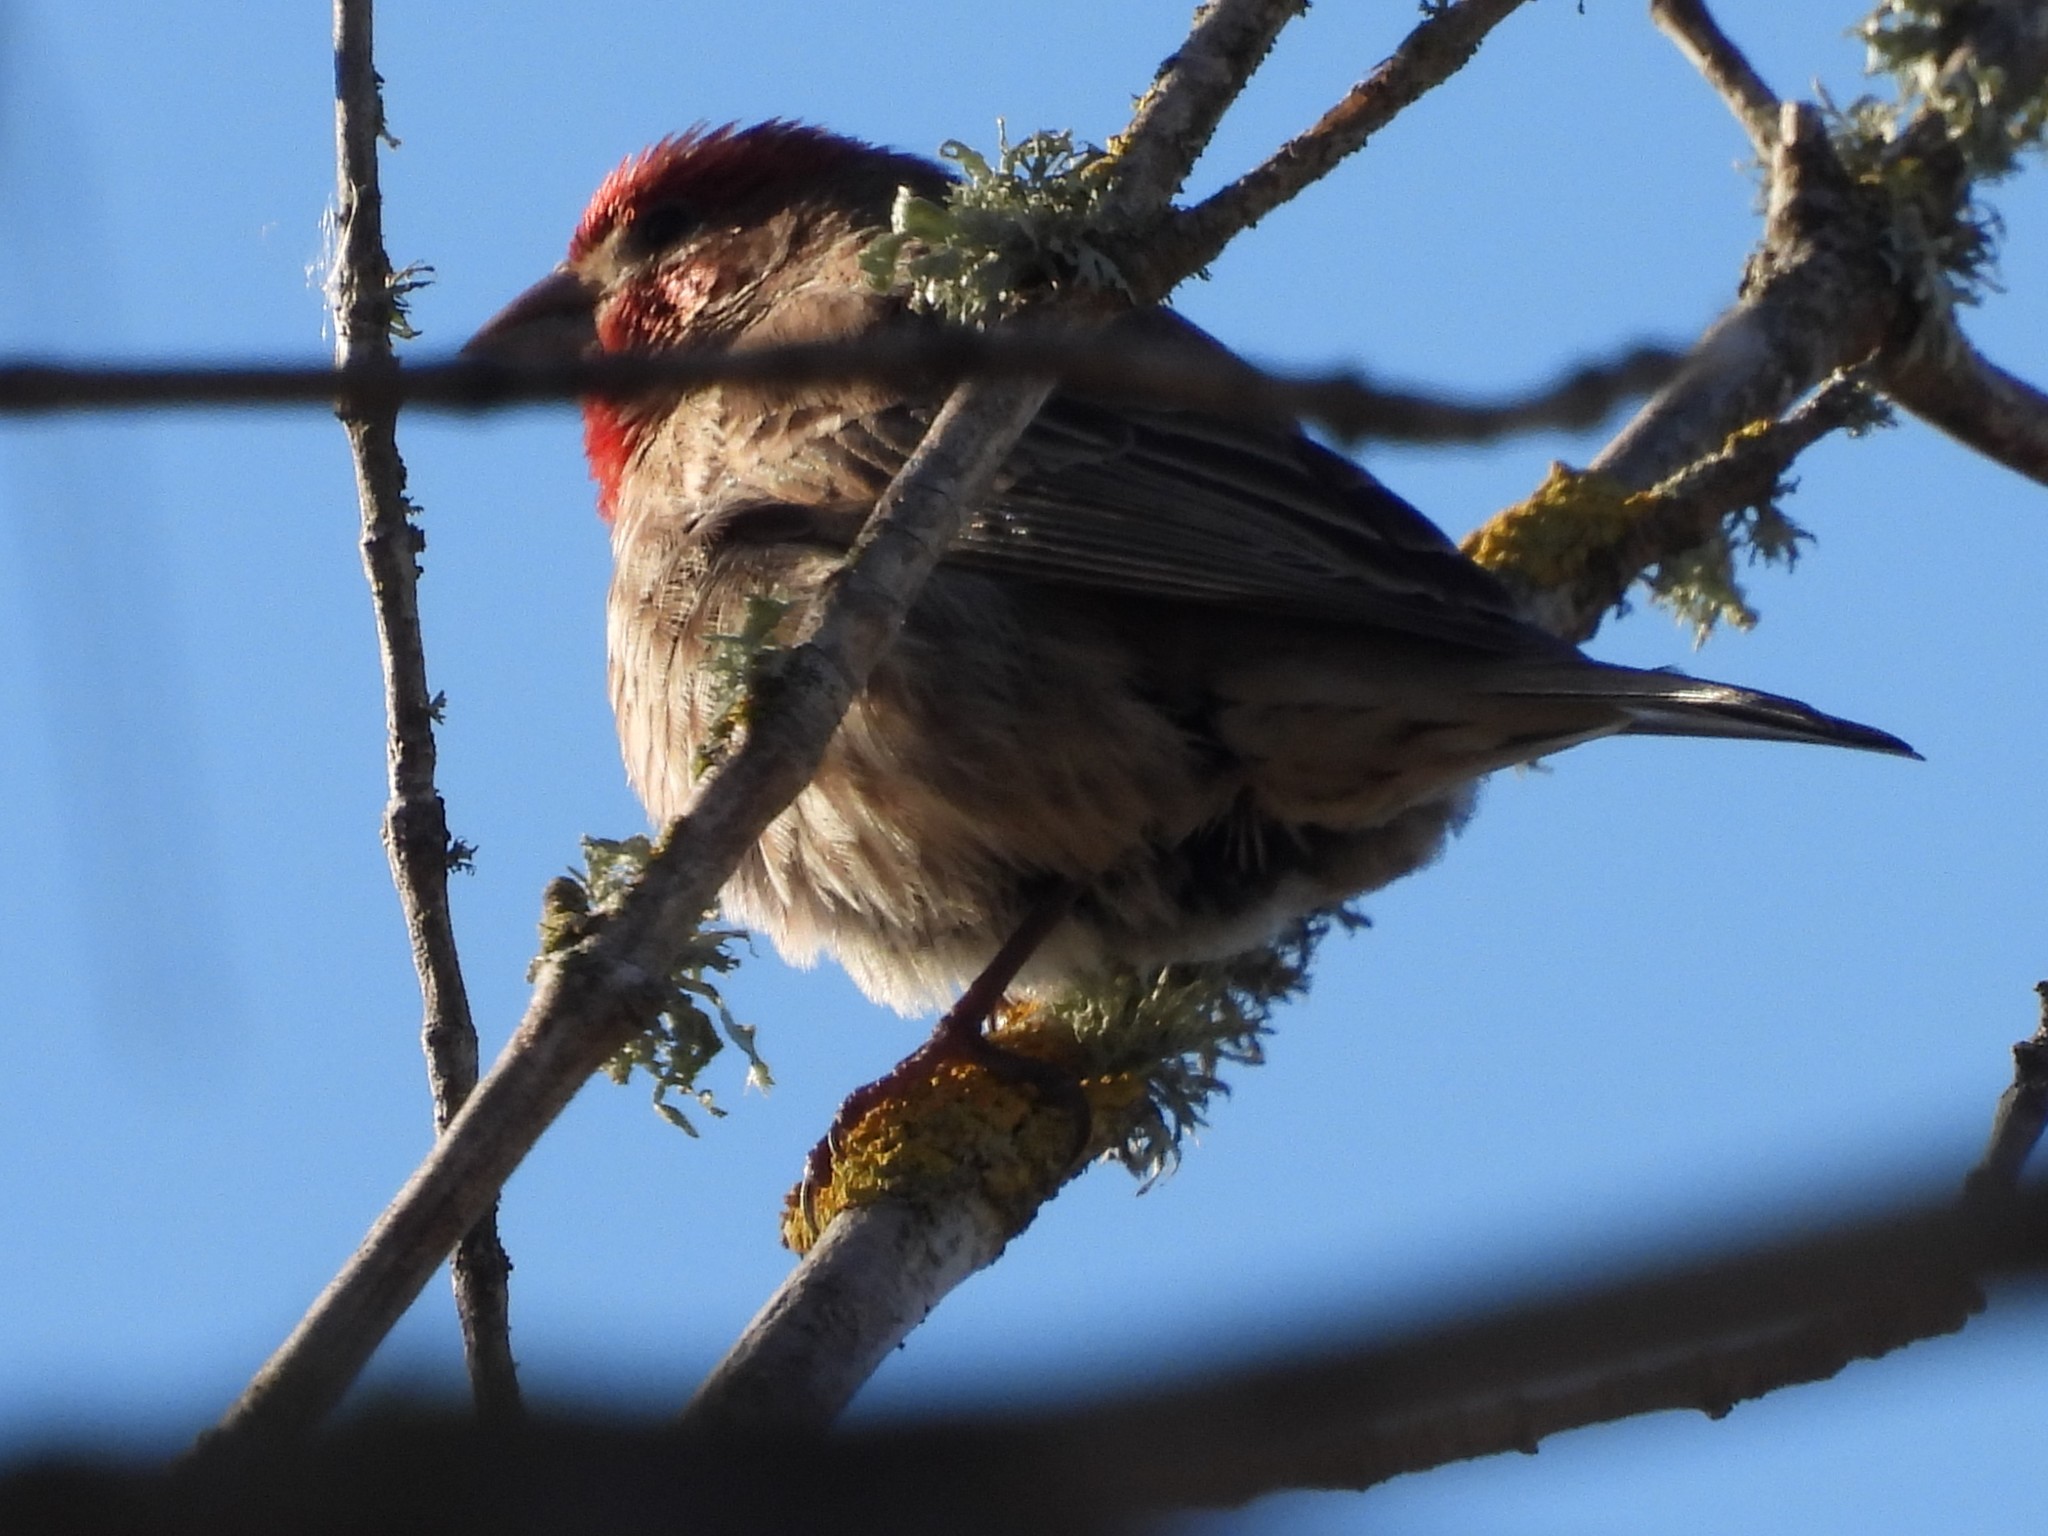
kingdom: Animalia
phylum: Chordata
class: Aves
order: Passeriformes
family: Fringillidae
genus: Haemorhous
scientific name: Haemorhous mexicanus
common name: House finch
